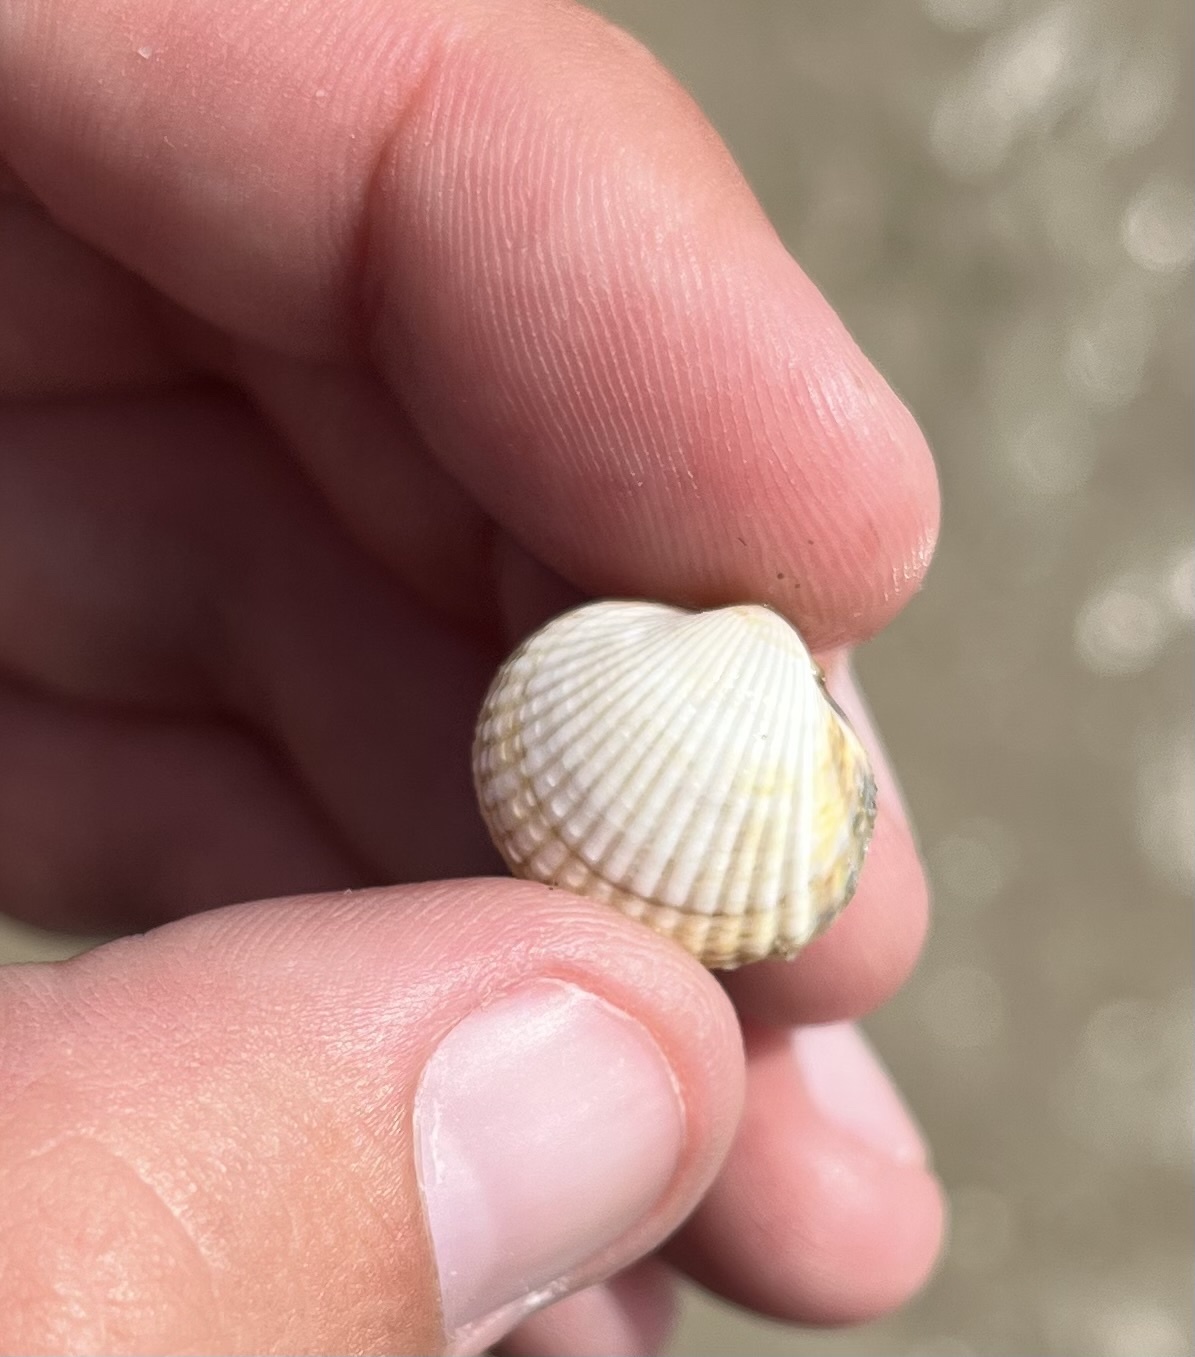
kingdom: Animalia
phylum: Mollusca
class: Bivalvia
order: Cardiida
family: Cardiidae
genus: Cerastoderma
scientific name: Cerastoderma edule
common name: Common cockle
